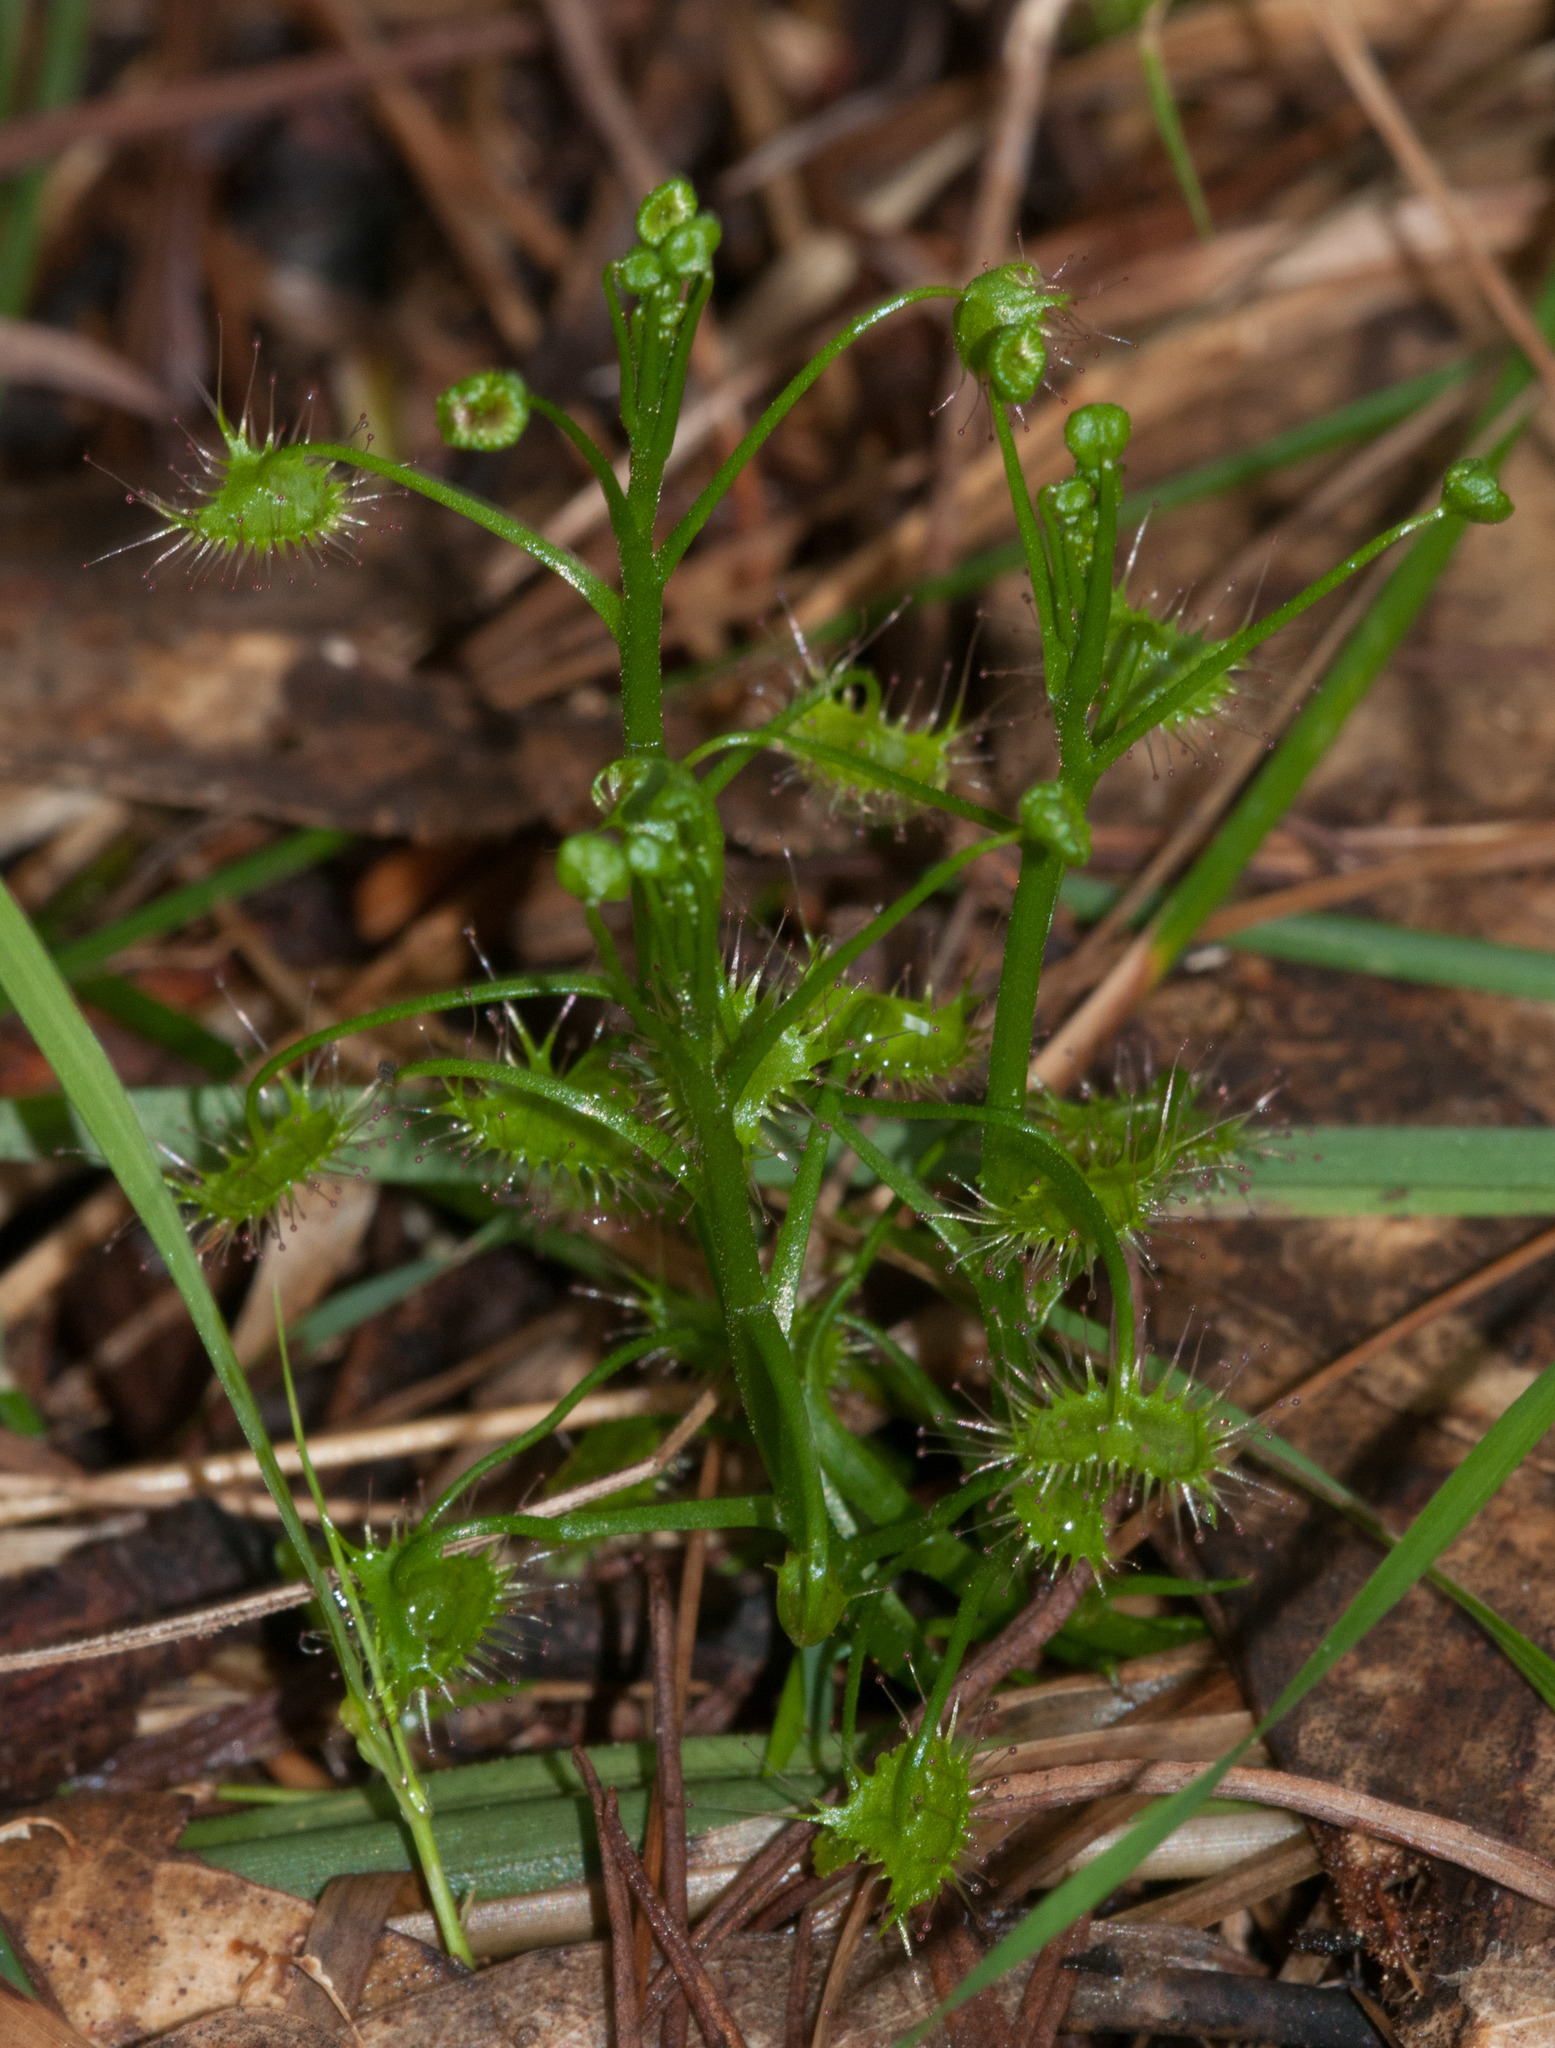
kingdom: Plantae
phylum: Tracheophyta
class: Magnoliopsida
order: Caryophyllales
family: Droseraceae
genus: Drosera
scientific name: Drosera peltata
